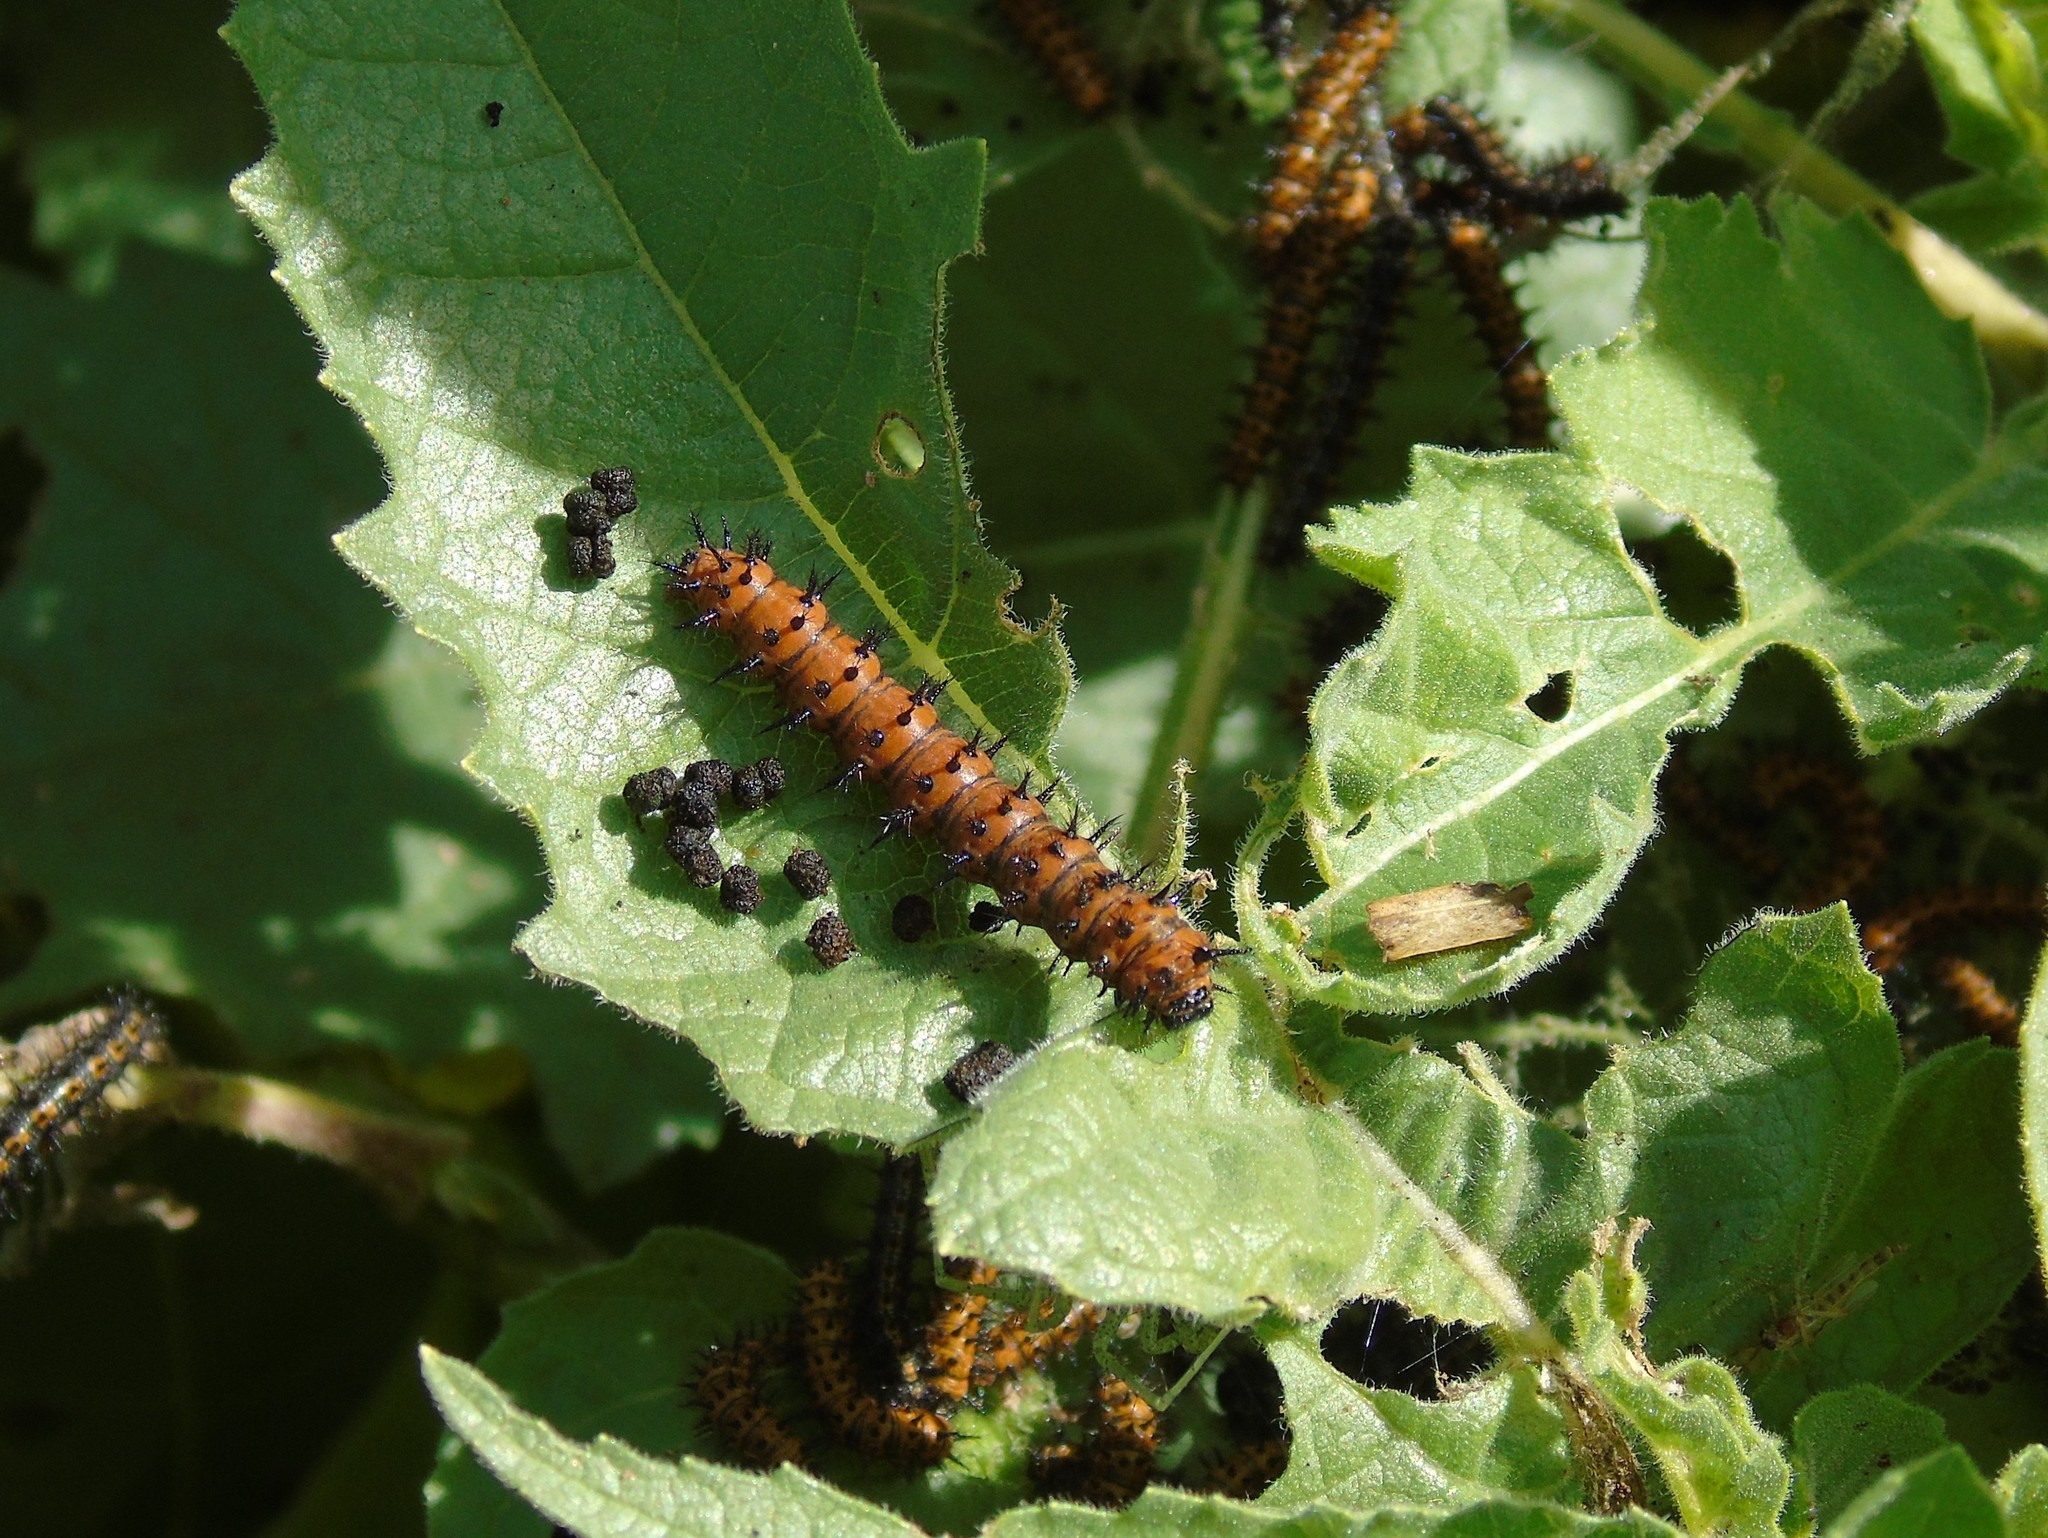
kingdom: Animalia
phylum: Arthropoda
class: Insecta
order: Lepidoptera
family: Nymphalidae
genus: Chlosyne
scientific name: Chlosyne lacinia
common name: Bordered patch
